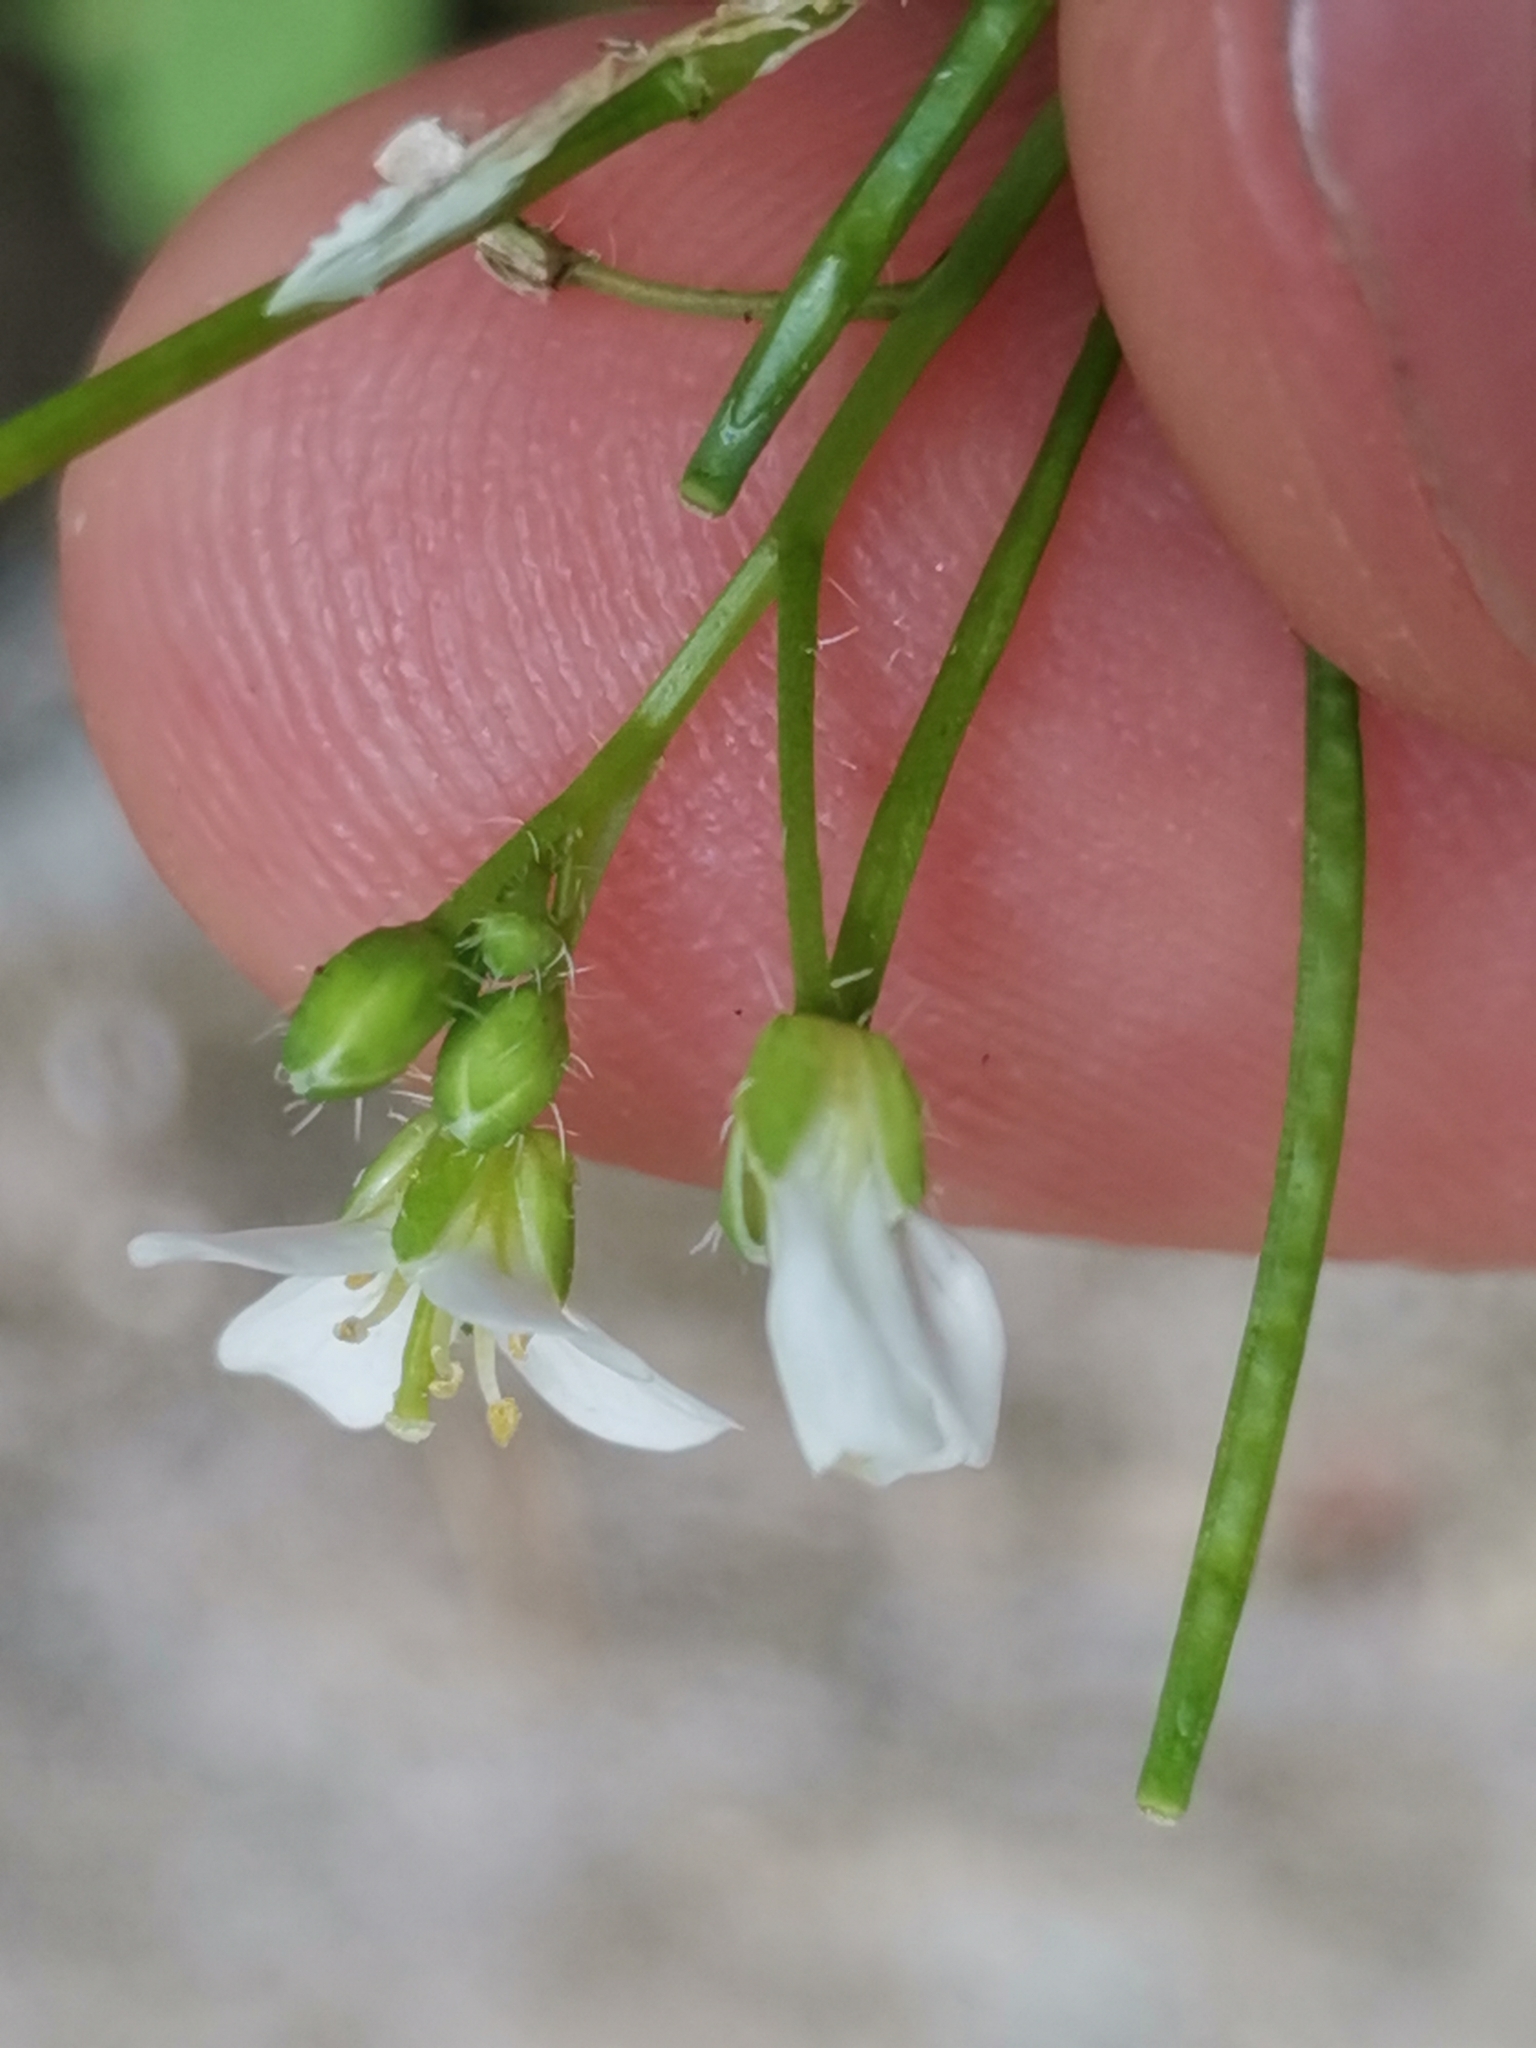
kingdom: Plantae
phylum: Tracheophyta
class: Magnoliopsida
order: Brassicales
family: Brassicaceae
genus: Cardamine
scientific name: Cardamine caldeirarum
